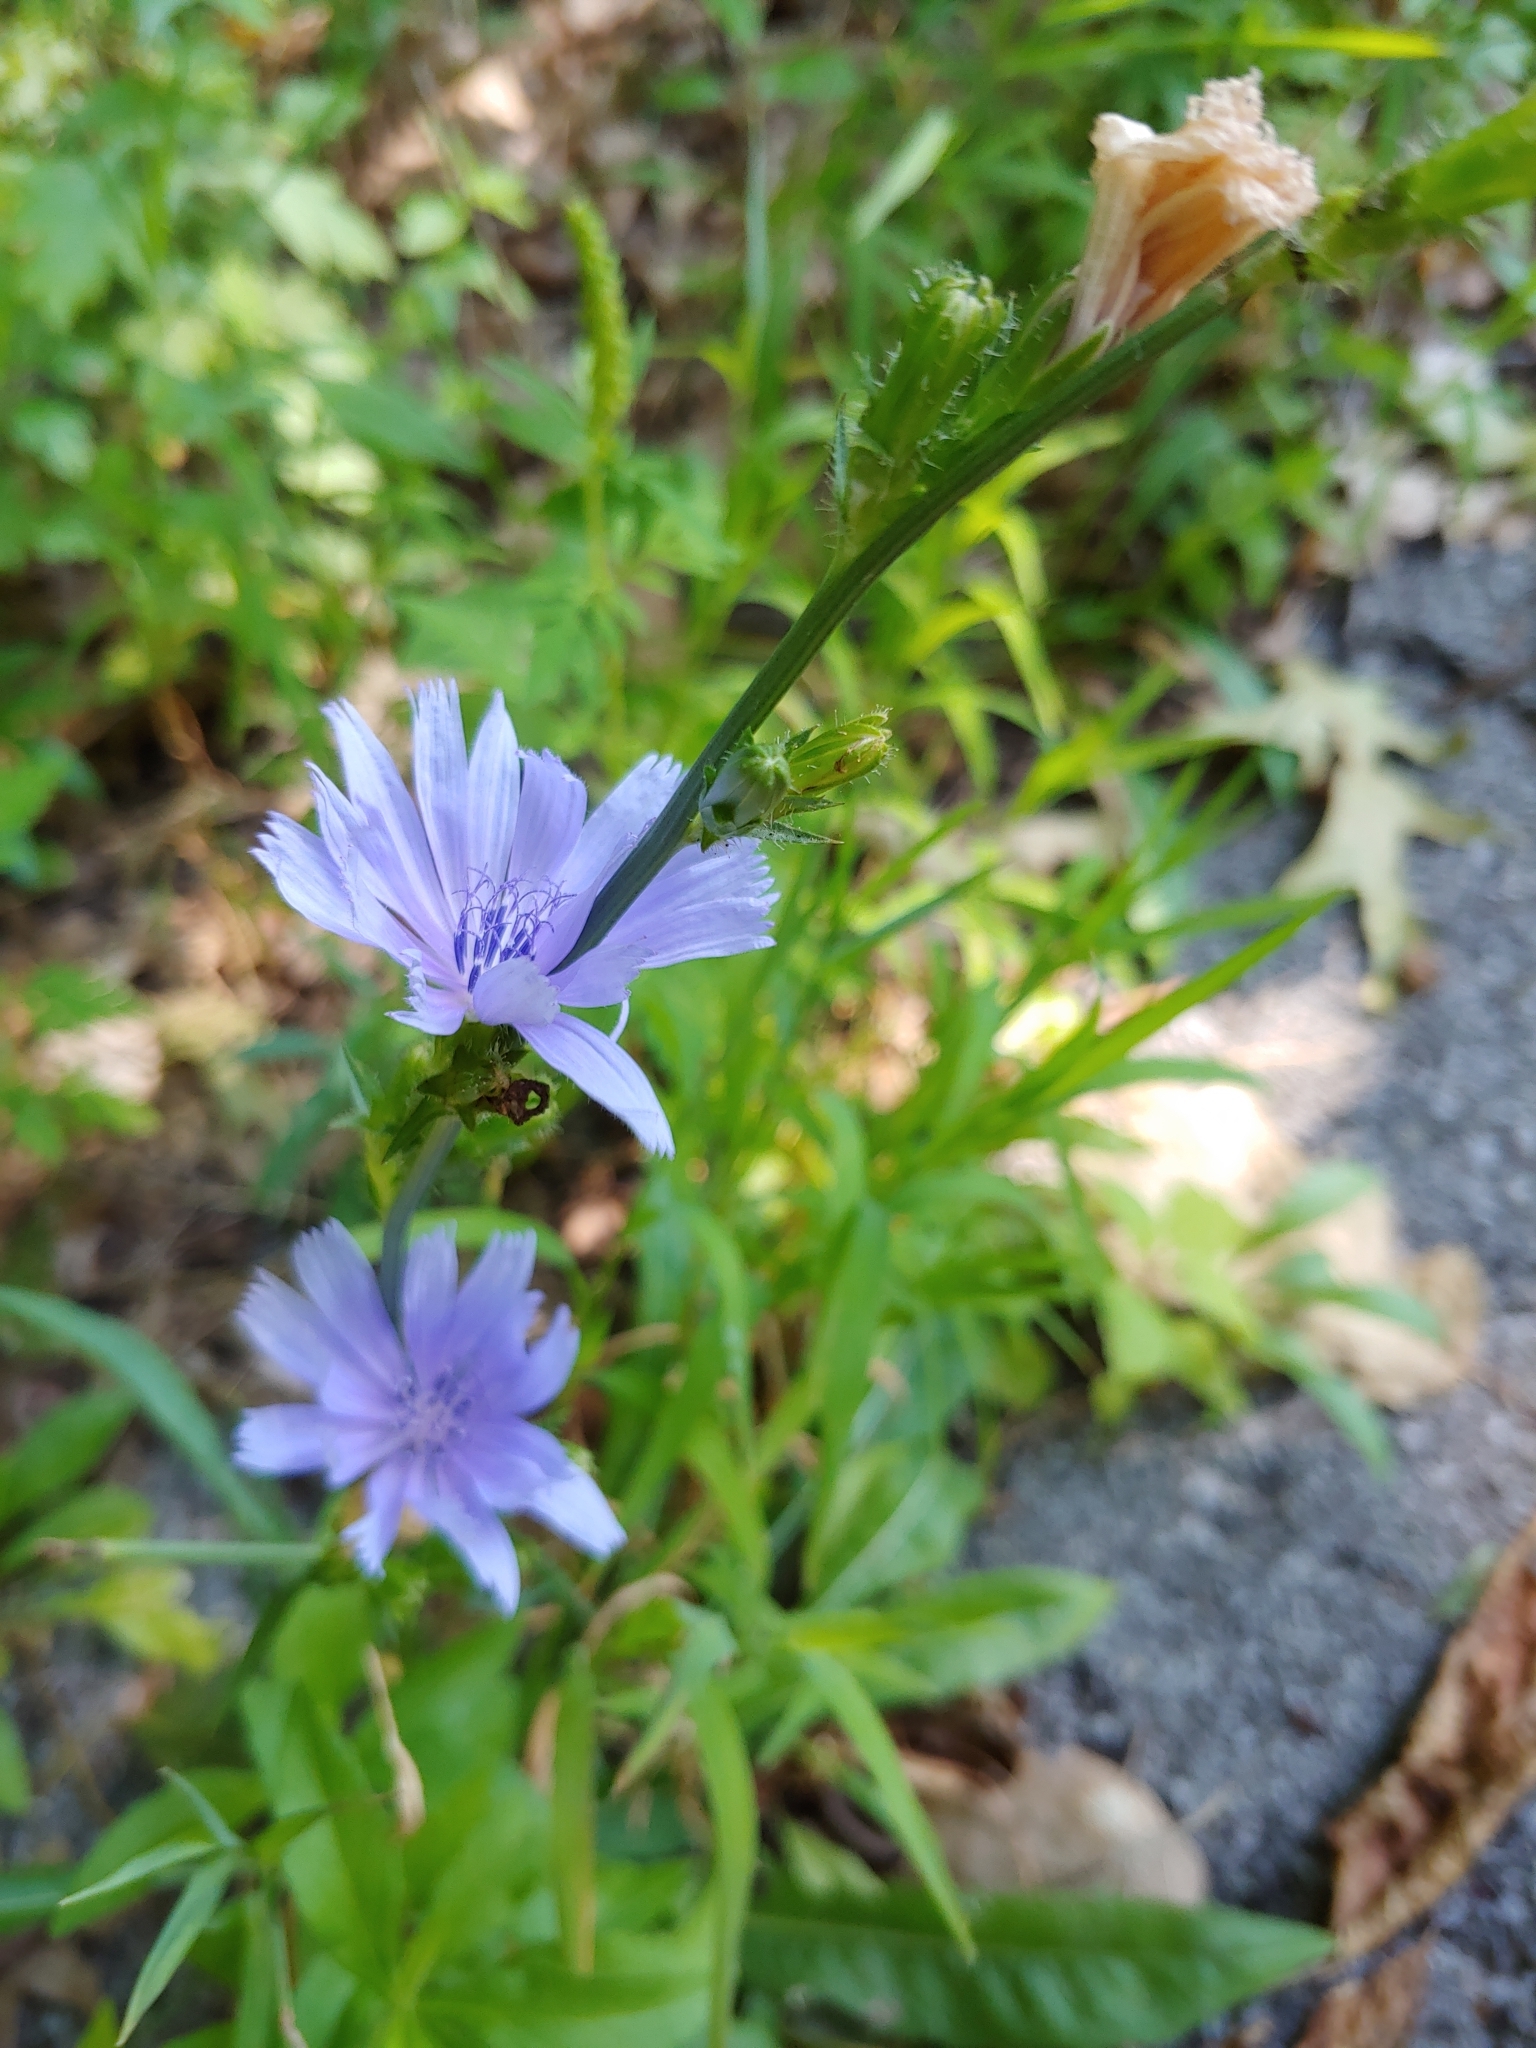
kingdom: Plantae
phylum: Tracheophyta
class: Magnoliopsida
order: Asterales
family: Asteraceae
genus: Cichorium
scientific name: Cichorium intybus
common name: Chicory
